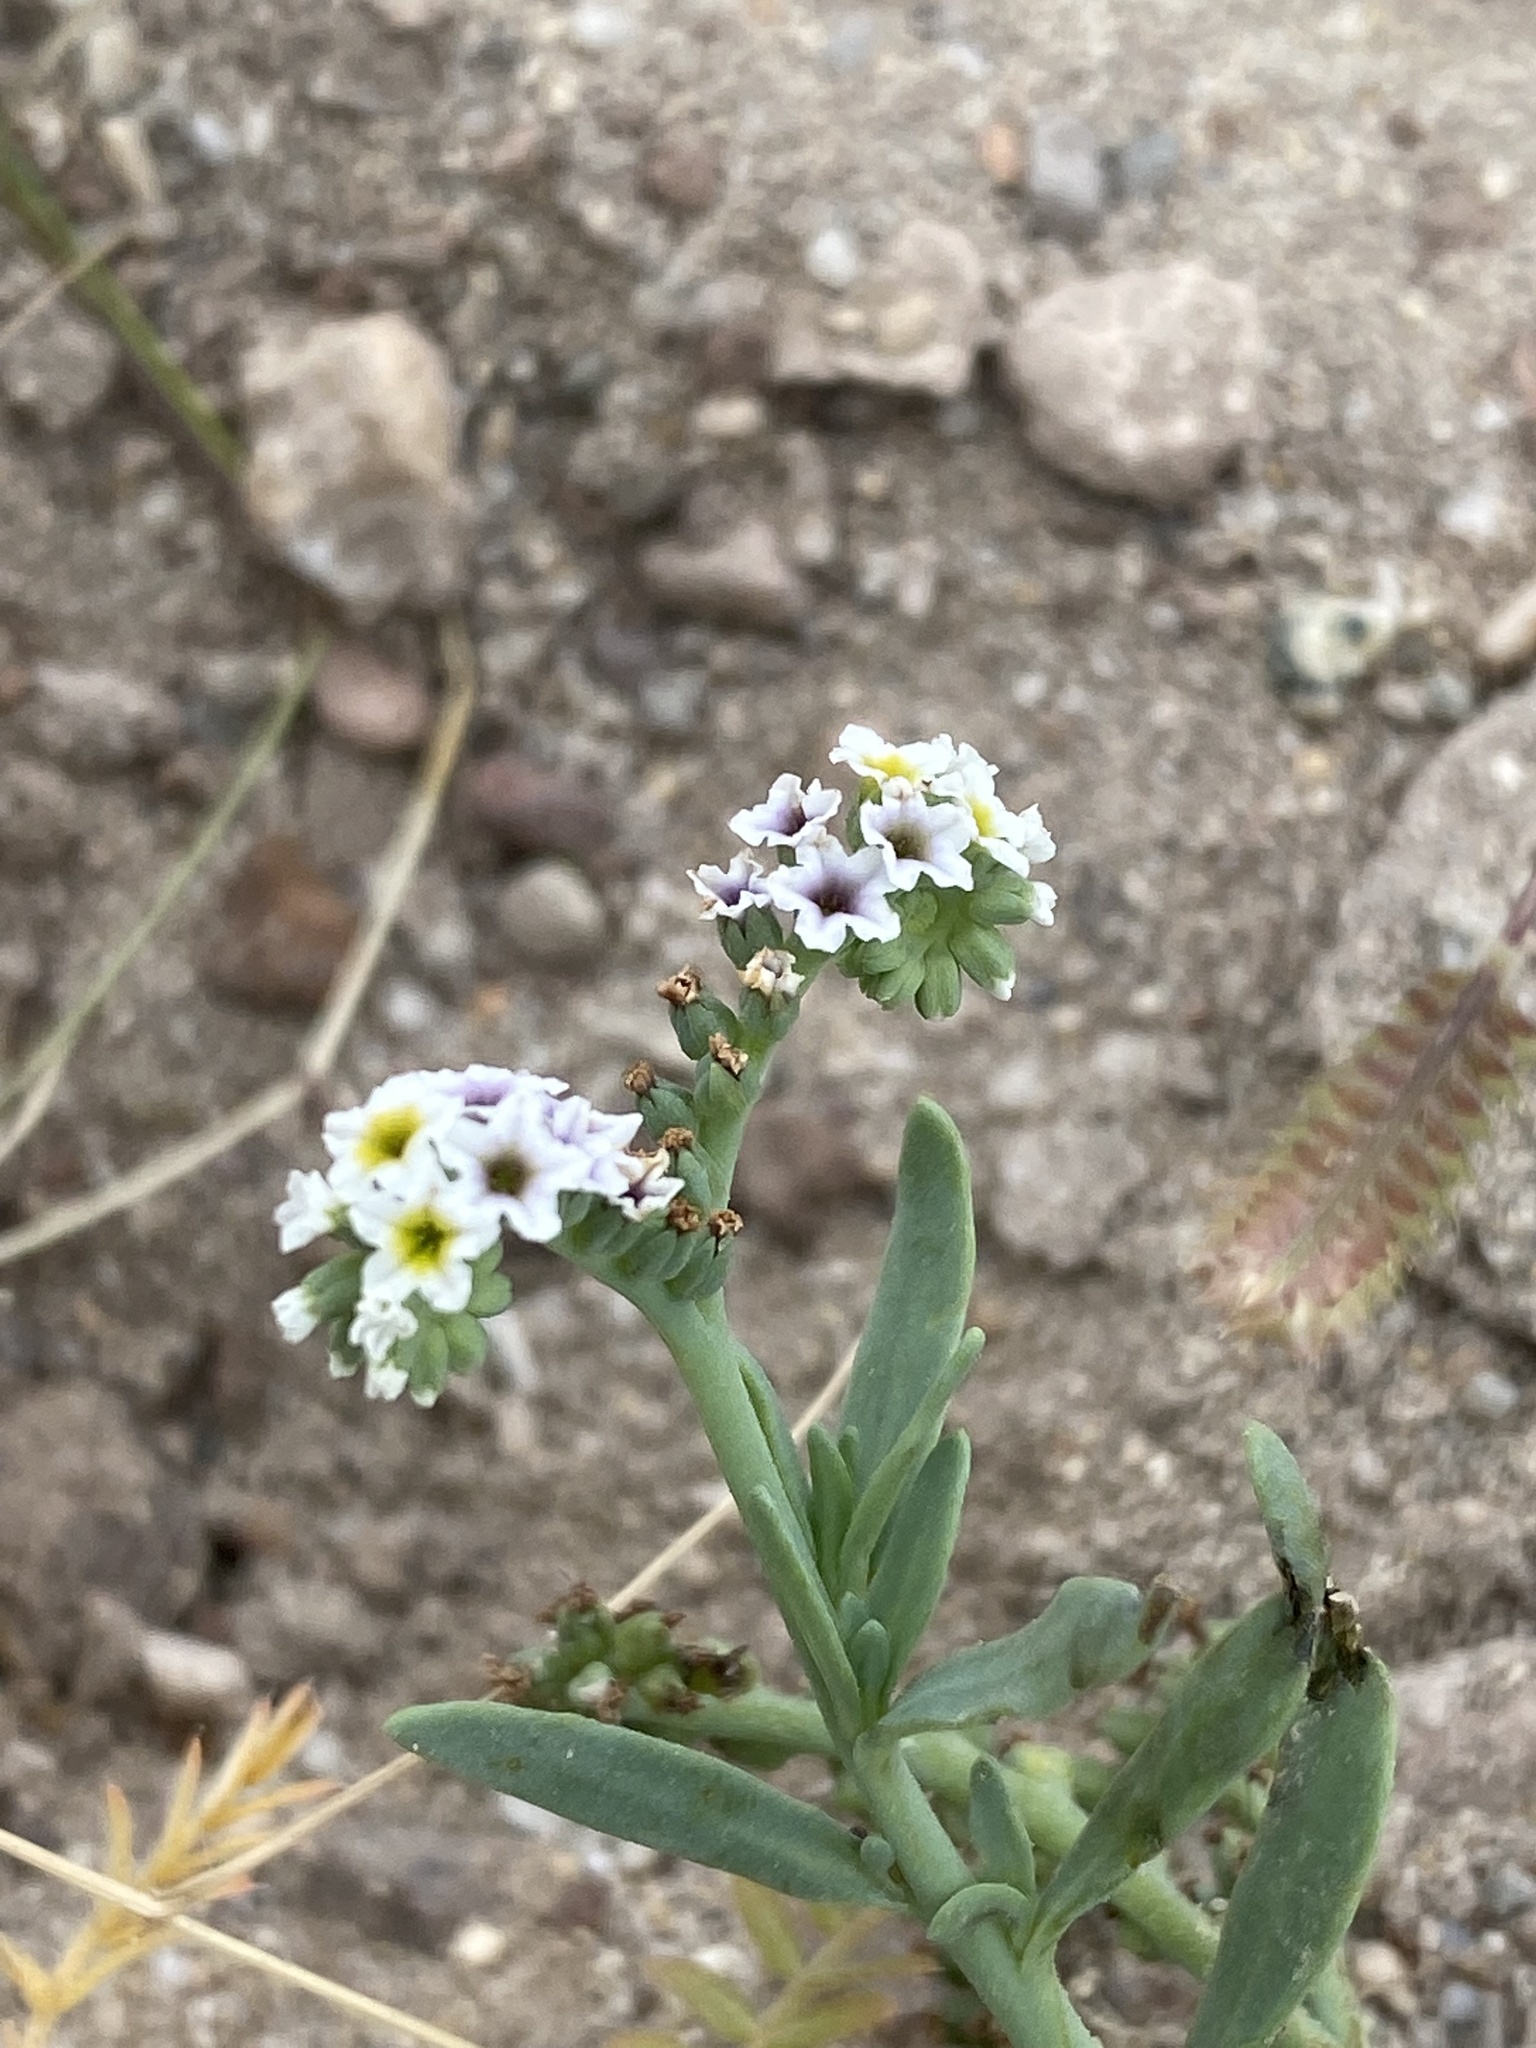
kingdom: Plantae
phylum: Tracheophyta
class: Magnoliopsida
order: Boraginales
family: Heliotropiaceae
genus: Heliotropium
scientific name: Heliotropium curassavicum
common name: Seaside heliotrope
